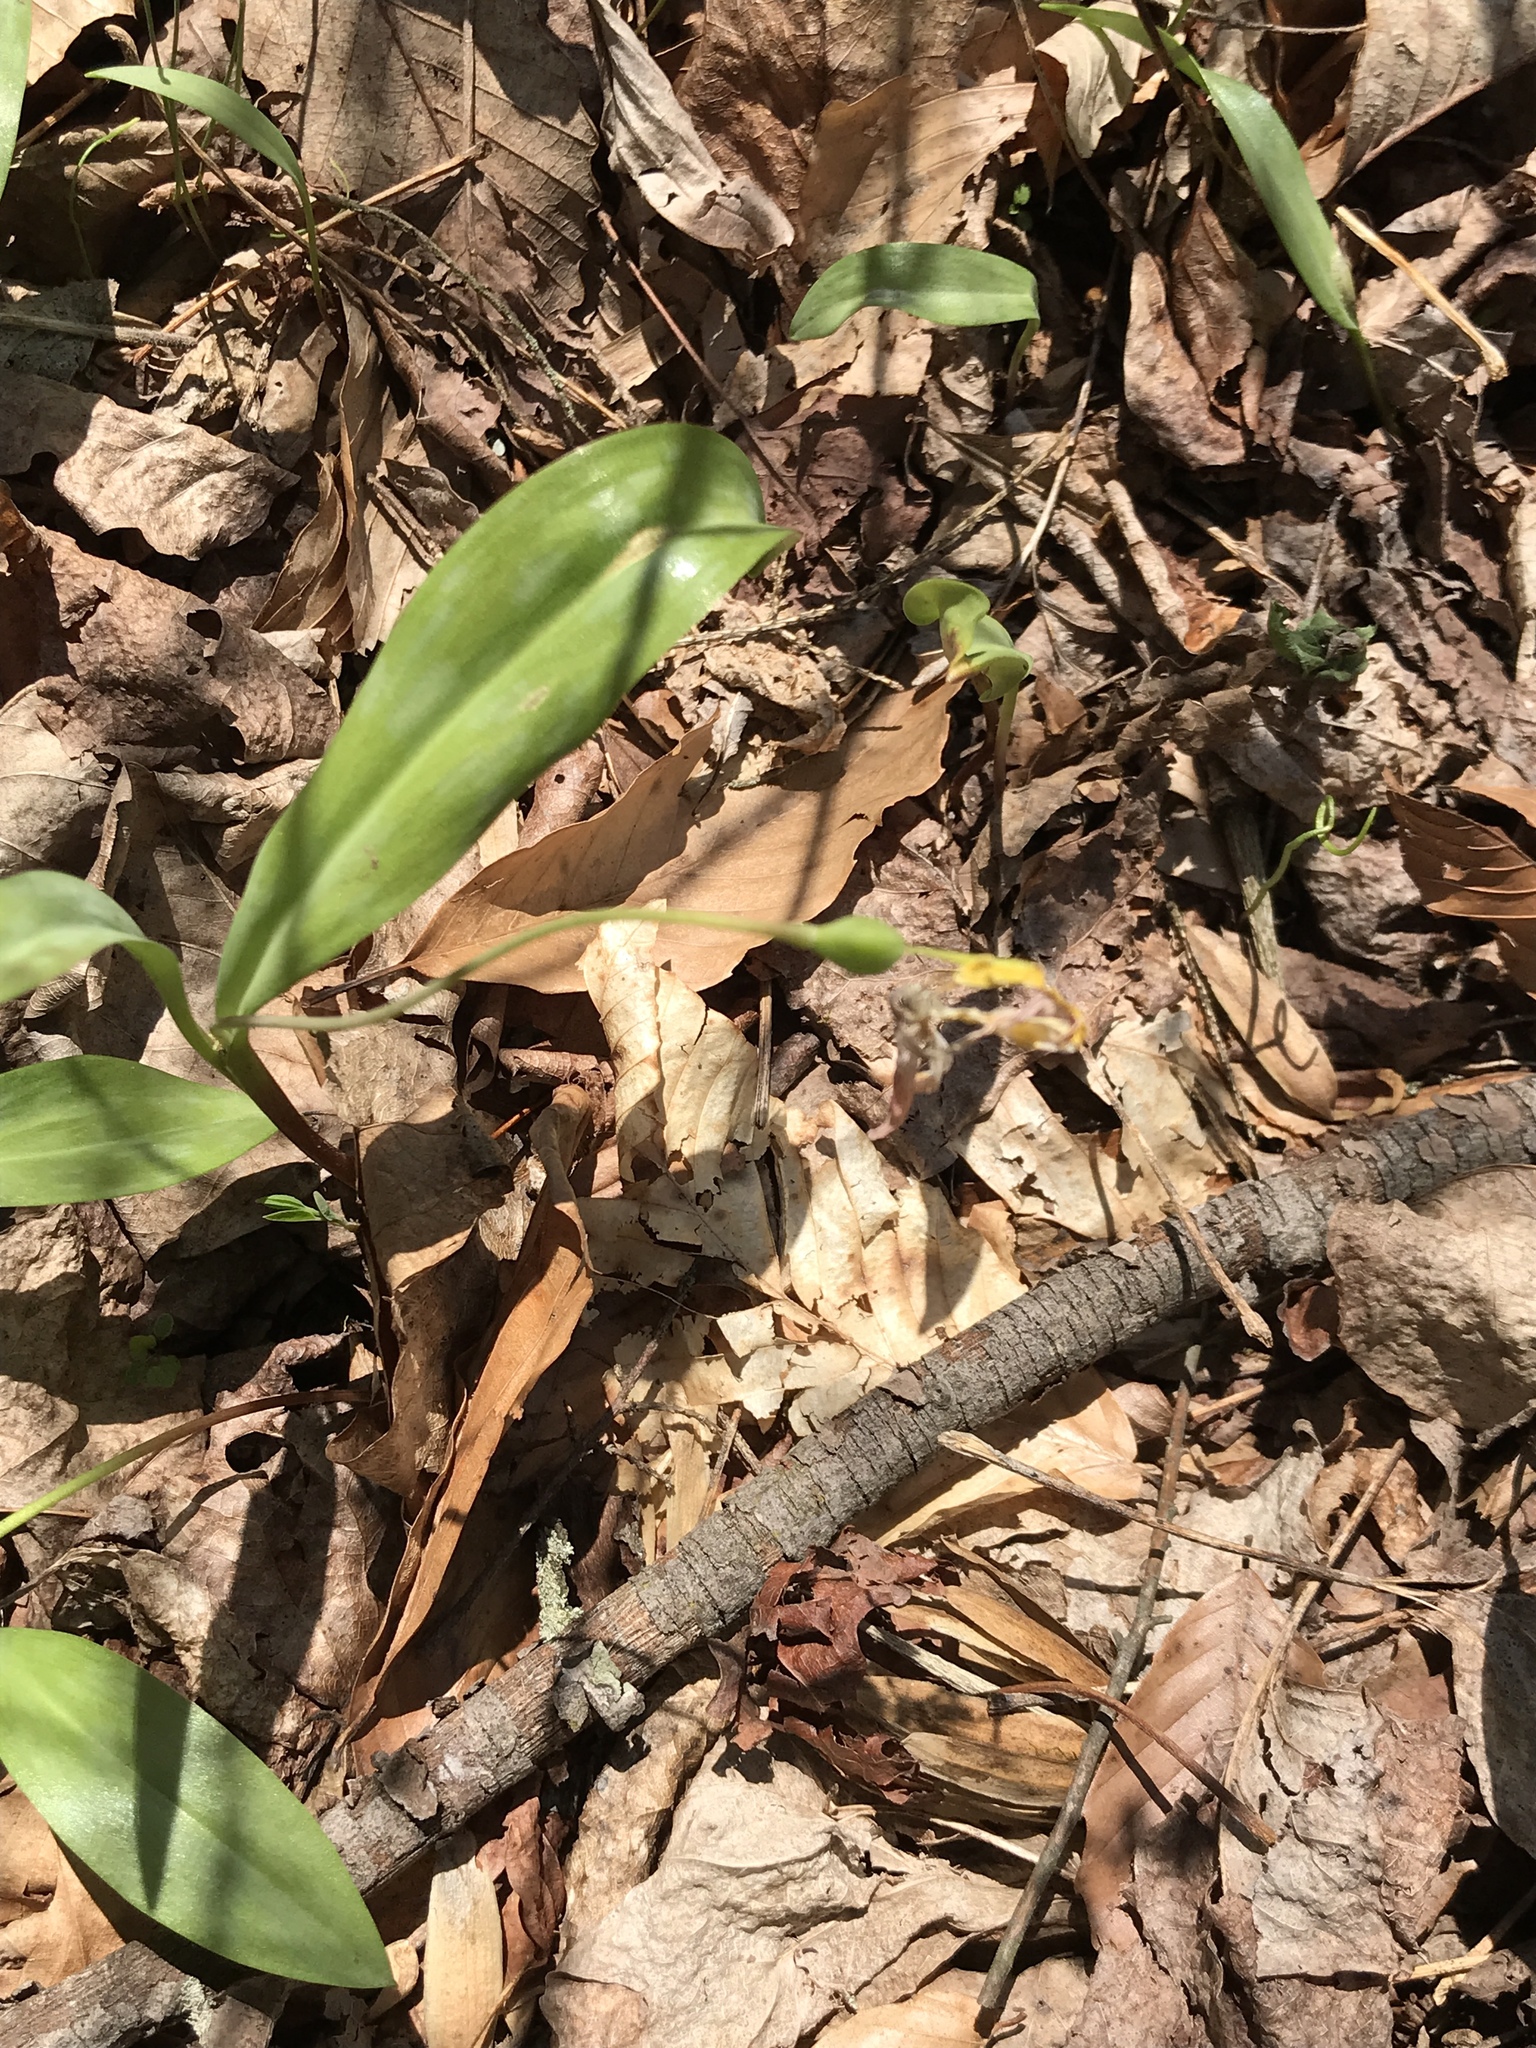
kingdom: Plantae
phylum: Tracheophyta
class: Liliopsida
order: Liliales
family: Liliaceae
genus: Erythronium
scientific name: Erythronium americanum
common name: Yellow adder's-tongue
